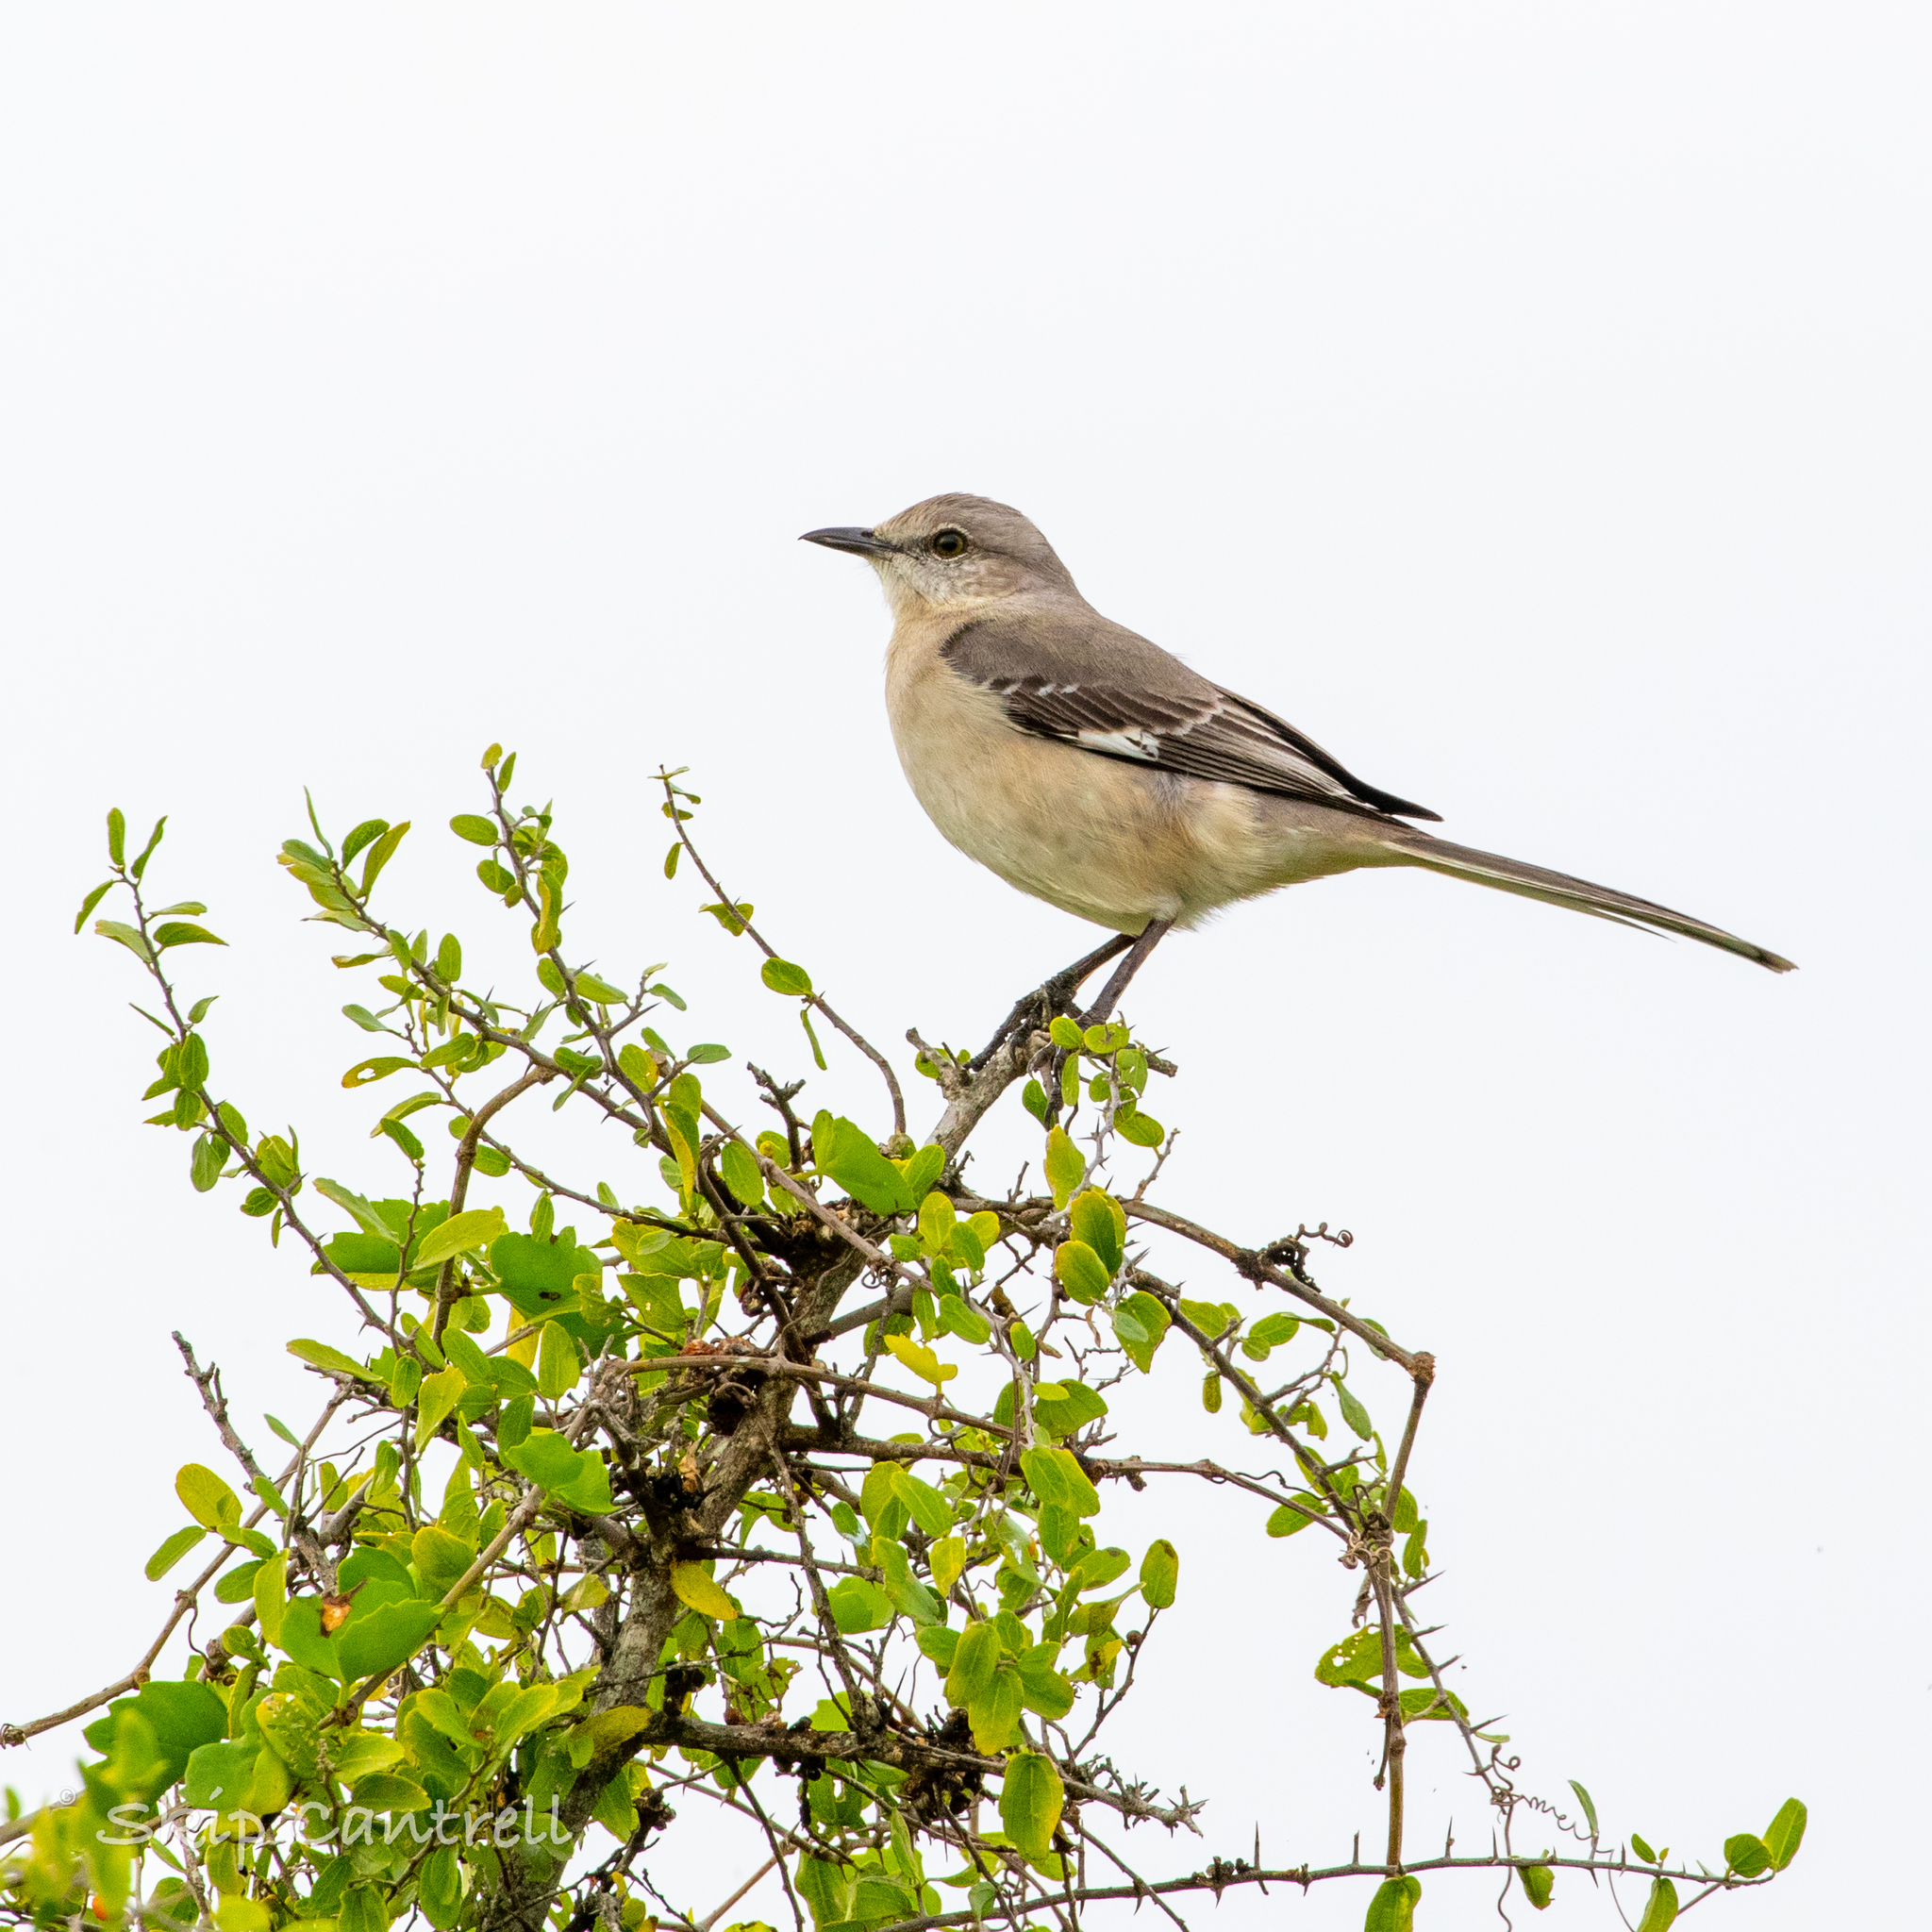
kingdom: Animalia
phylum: Chordata
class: Aves
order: Passeriformes
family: Mimidae
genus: Mimus
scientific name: Mimus polyglottos
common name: Northern mockingbird
